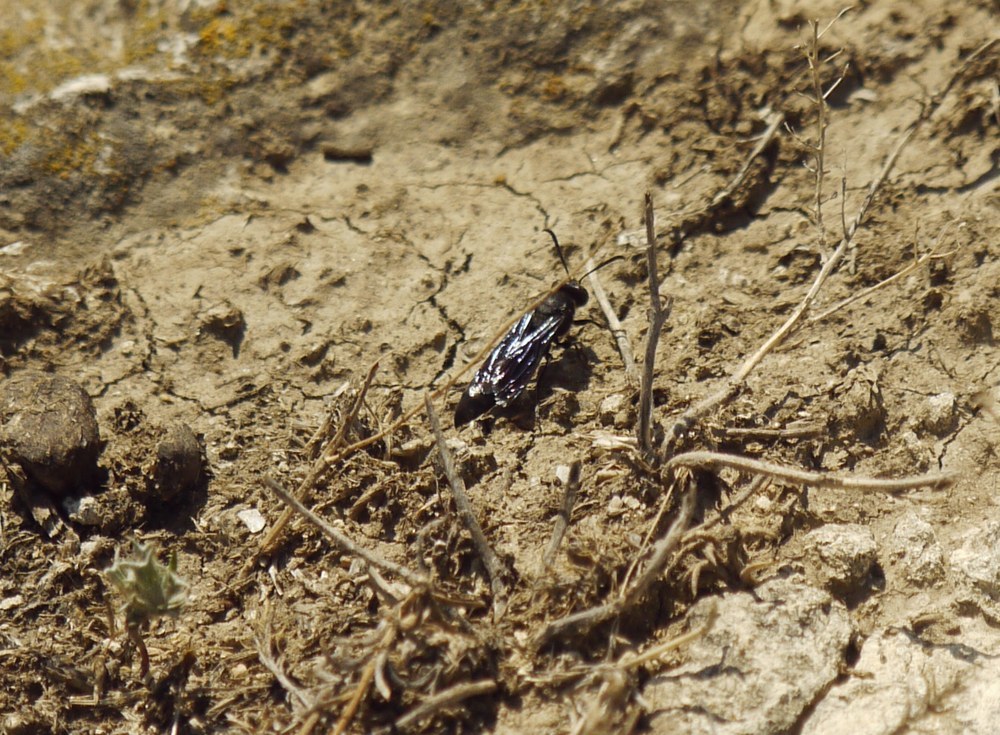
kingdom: Animalia
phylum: Arthropoda
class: Insecta
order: Hymenoptera
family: Crabronidae
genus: Stizoides
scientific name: Stizoides tridentatus
